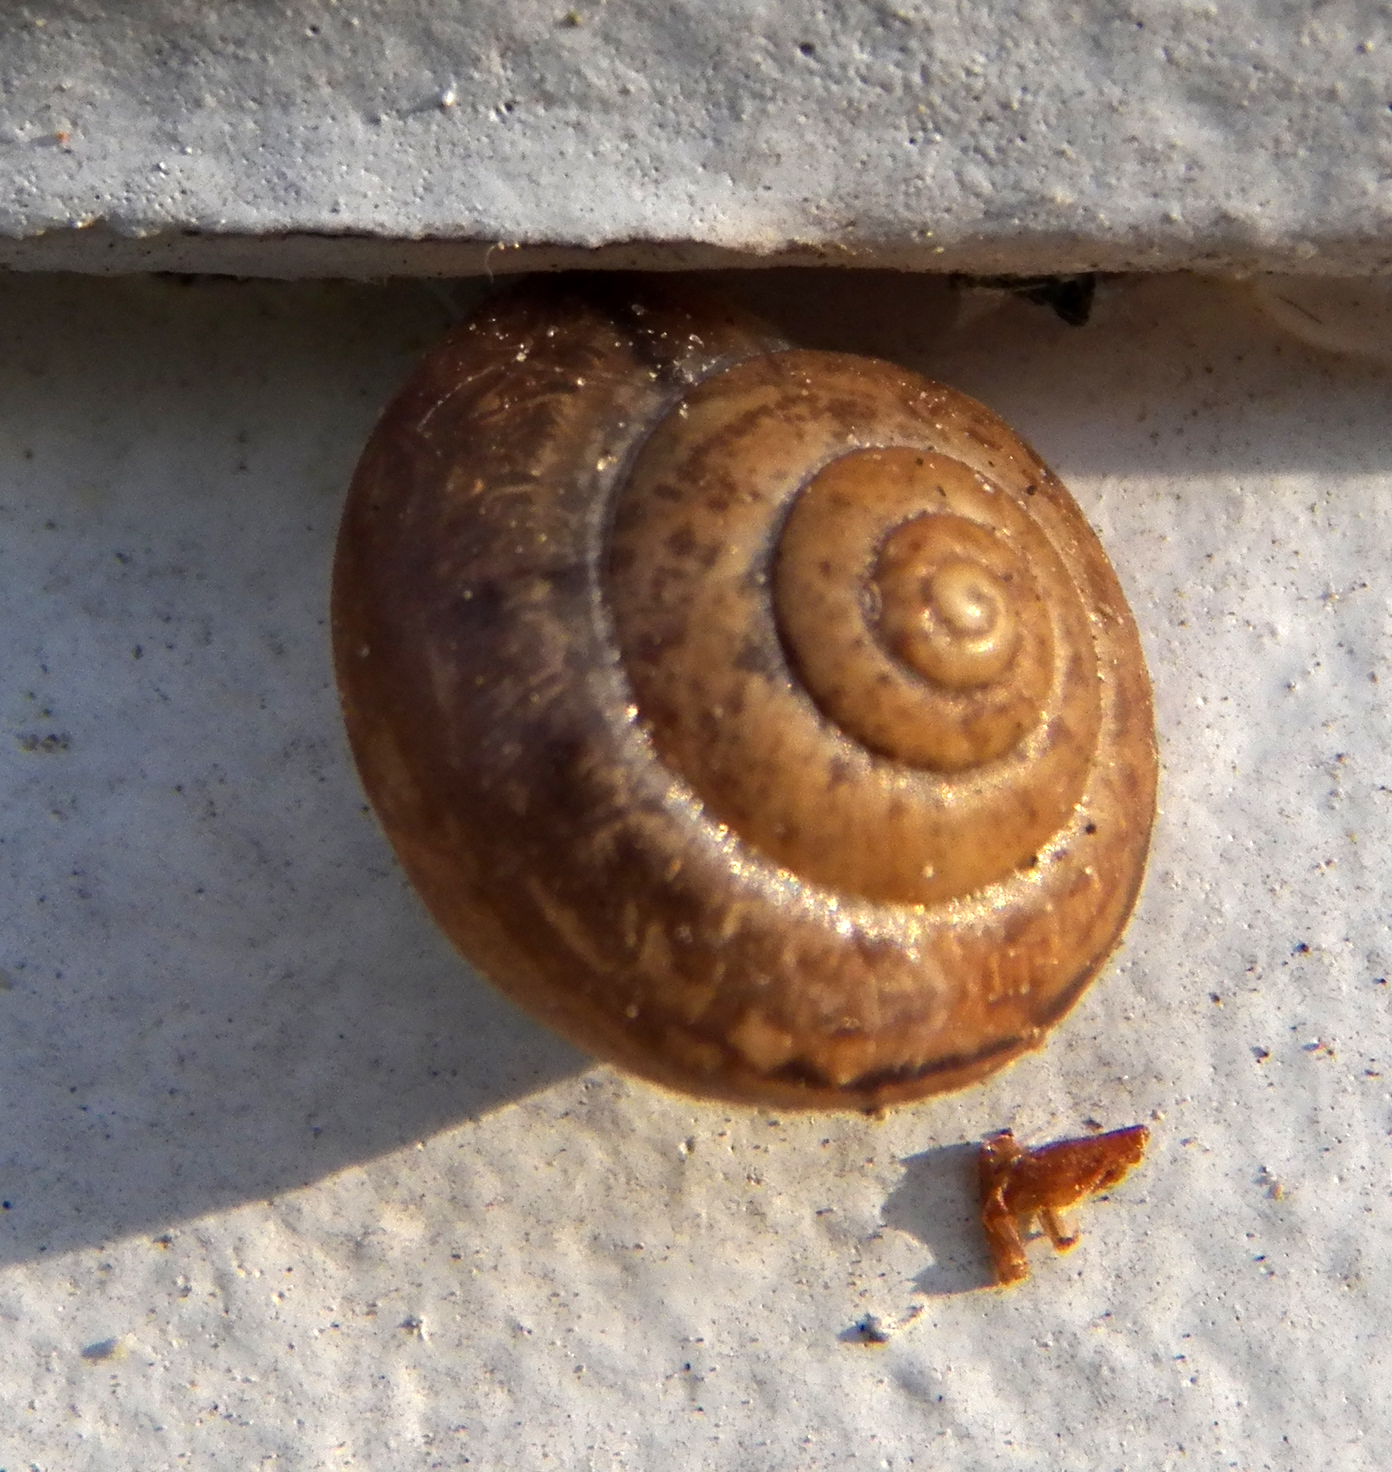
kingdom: Animalia
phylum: Mollusca
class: Gastropoda
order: Stylommatophora
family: Camaenidae
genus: Bradybaena
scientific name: Bradybaena similaris
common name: Asian trampsnail
